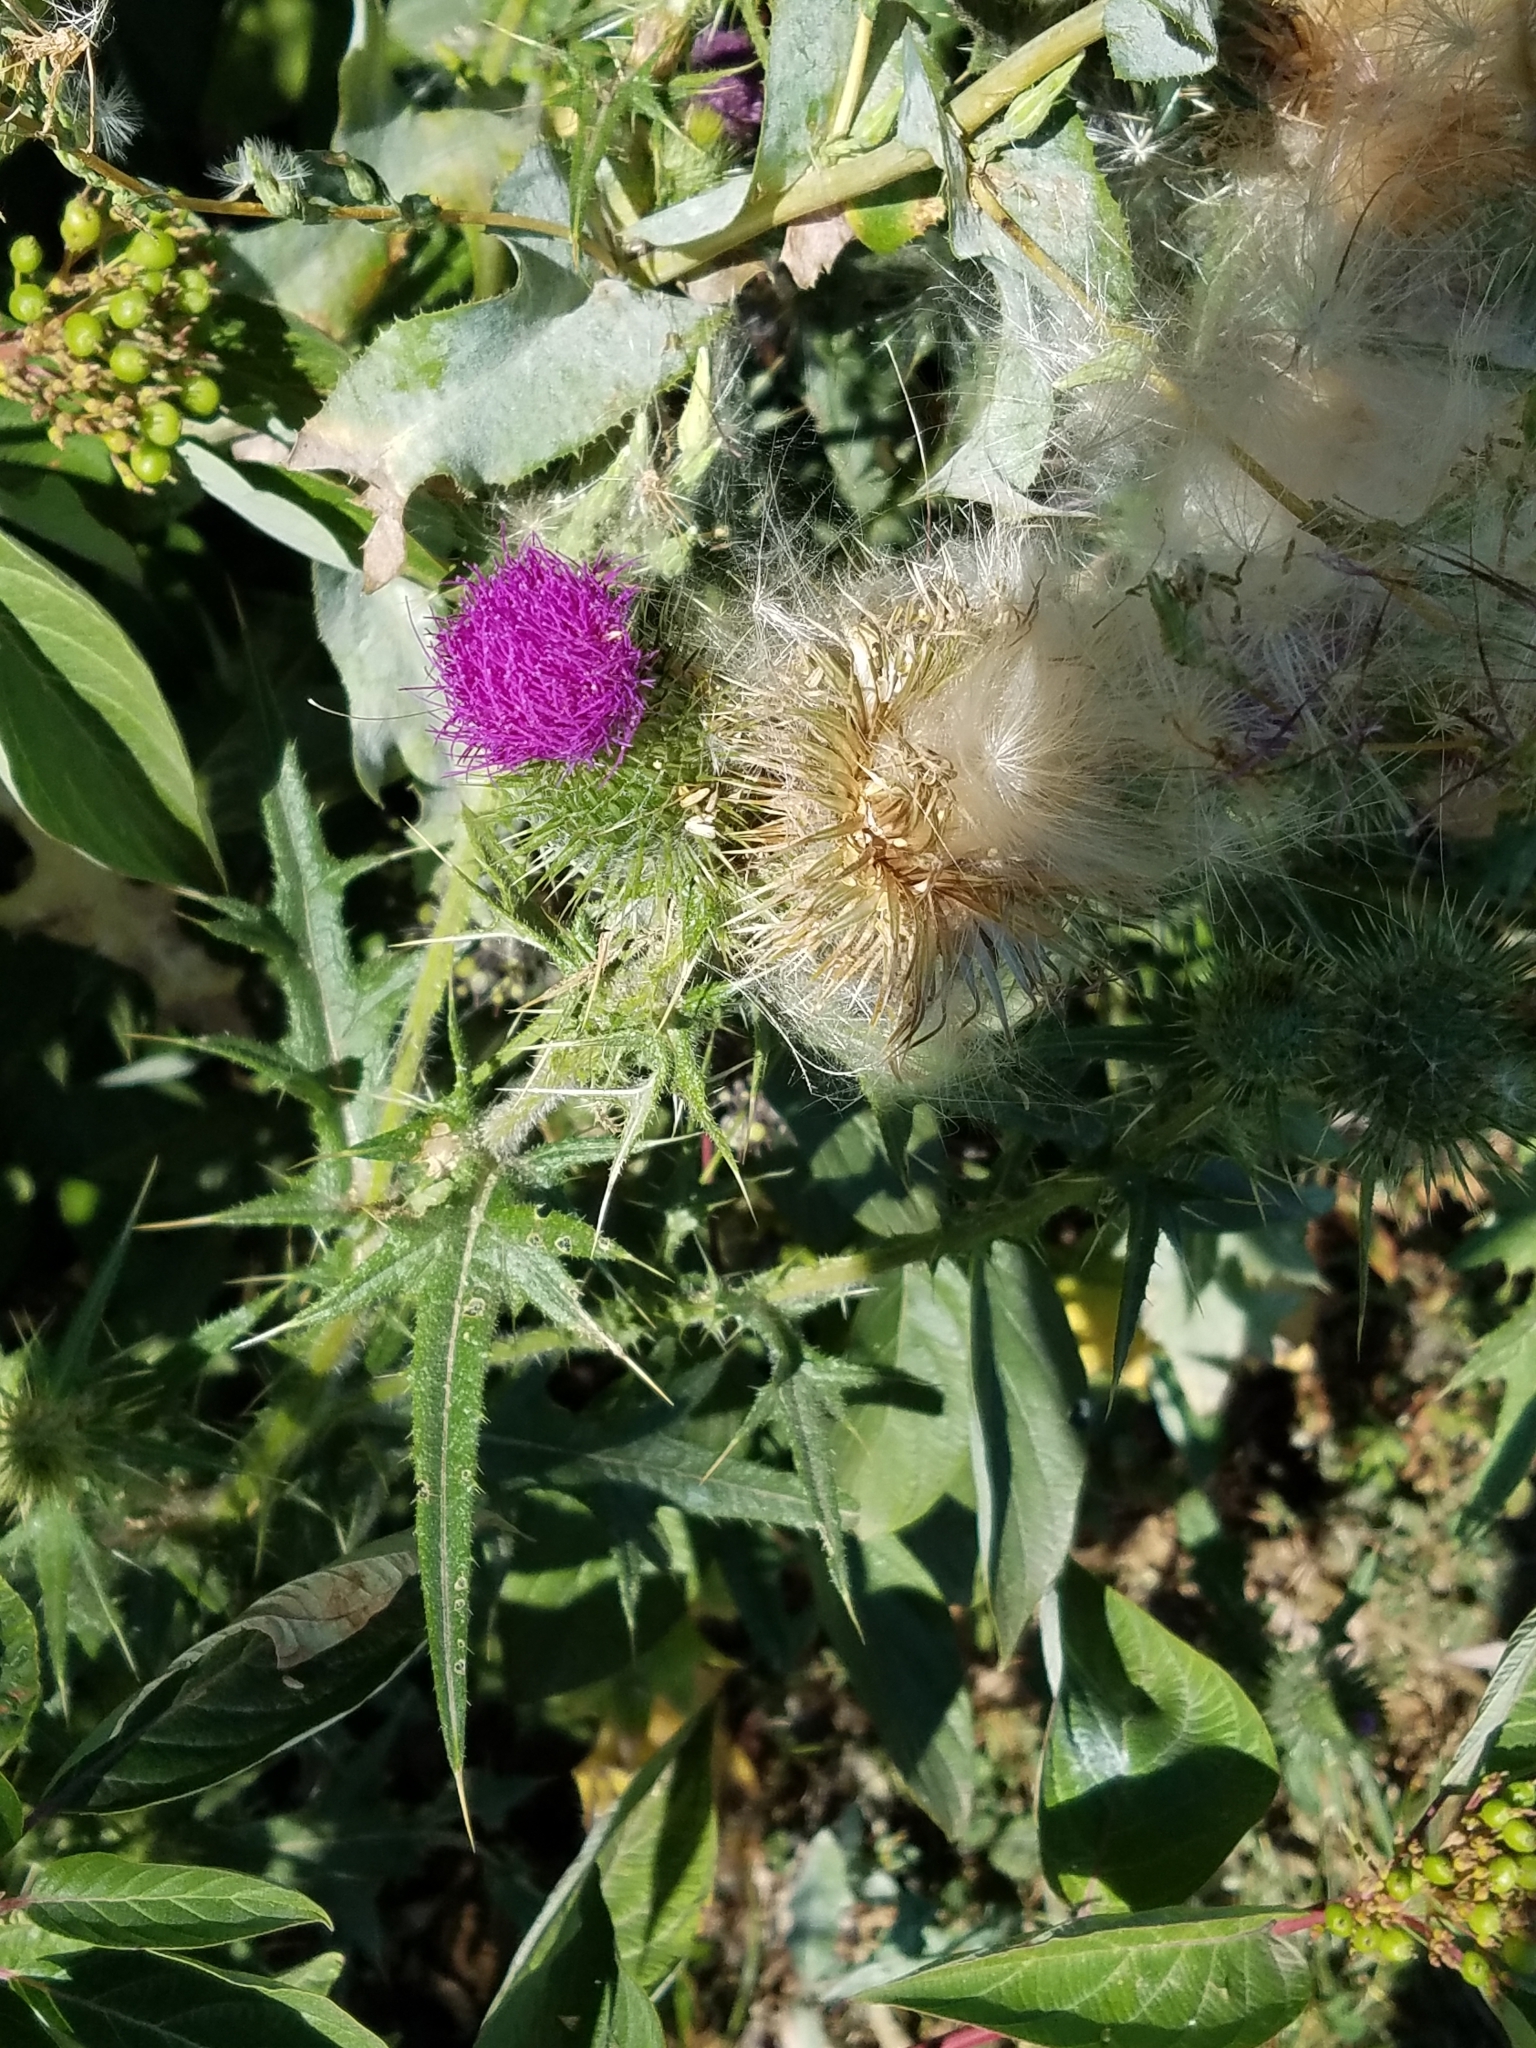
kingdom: Plantae
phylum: Tracheophyta
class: Magnoliopsida
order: Asterales
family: Asteraceae
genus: Cirsium
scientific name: Cirsium vulgare
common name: Bull thistle
